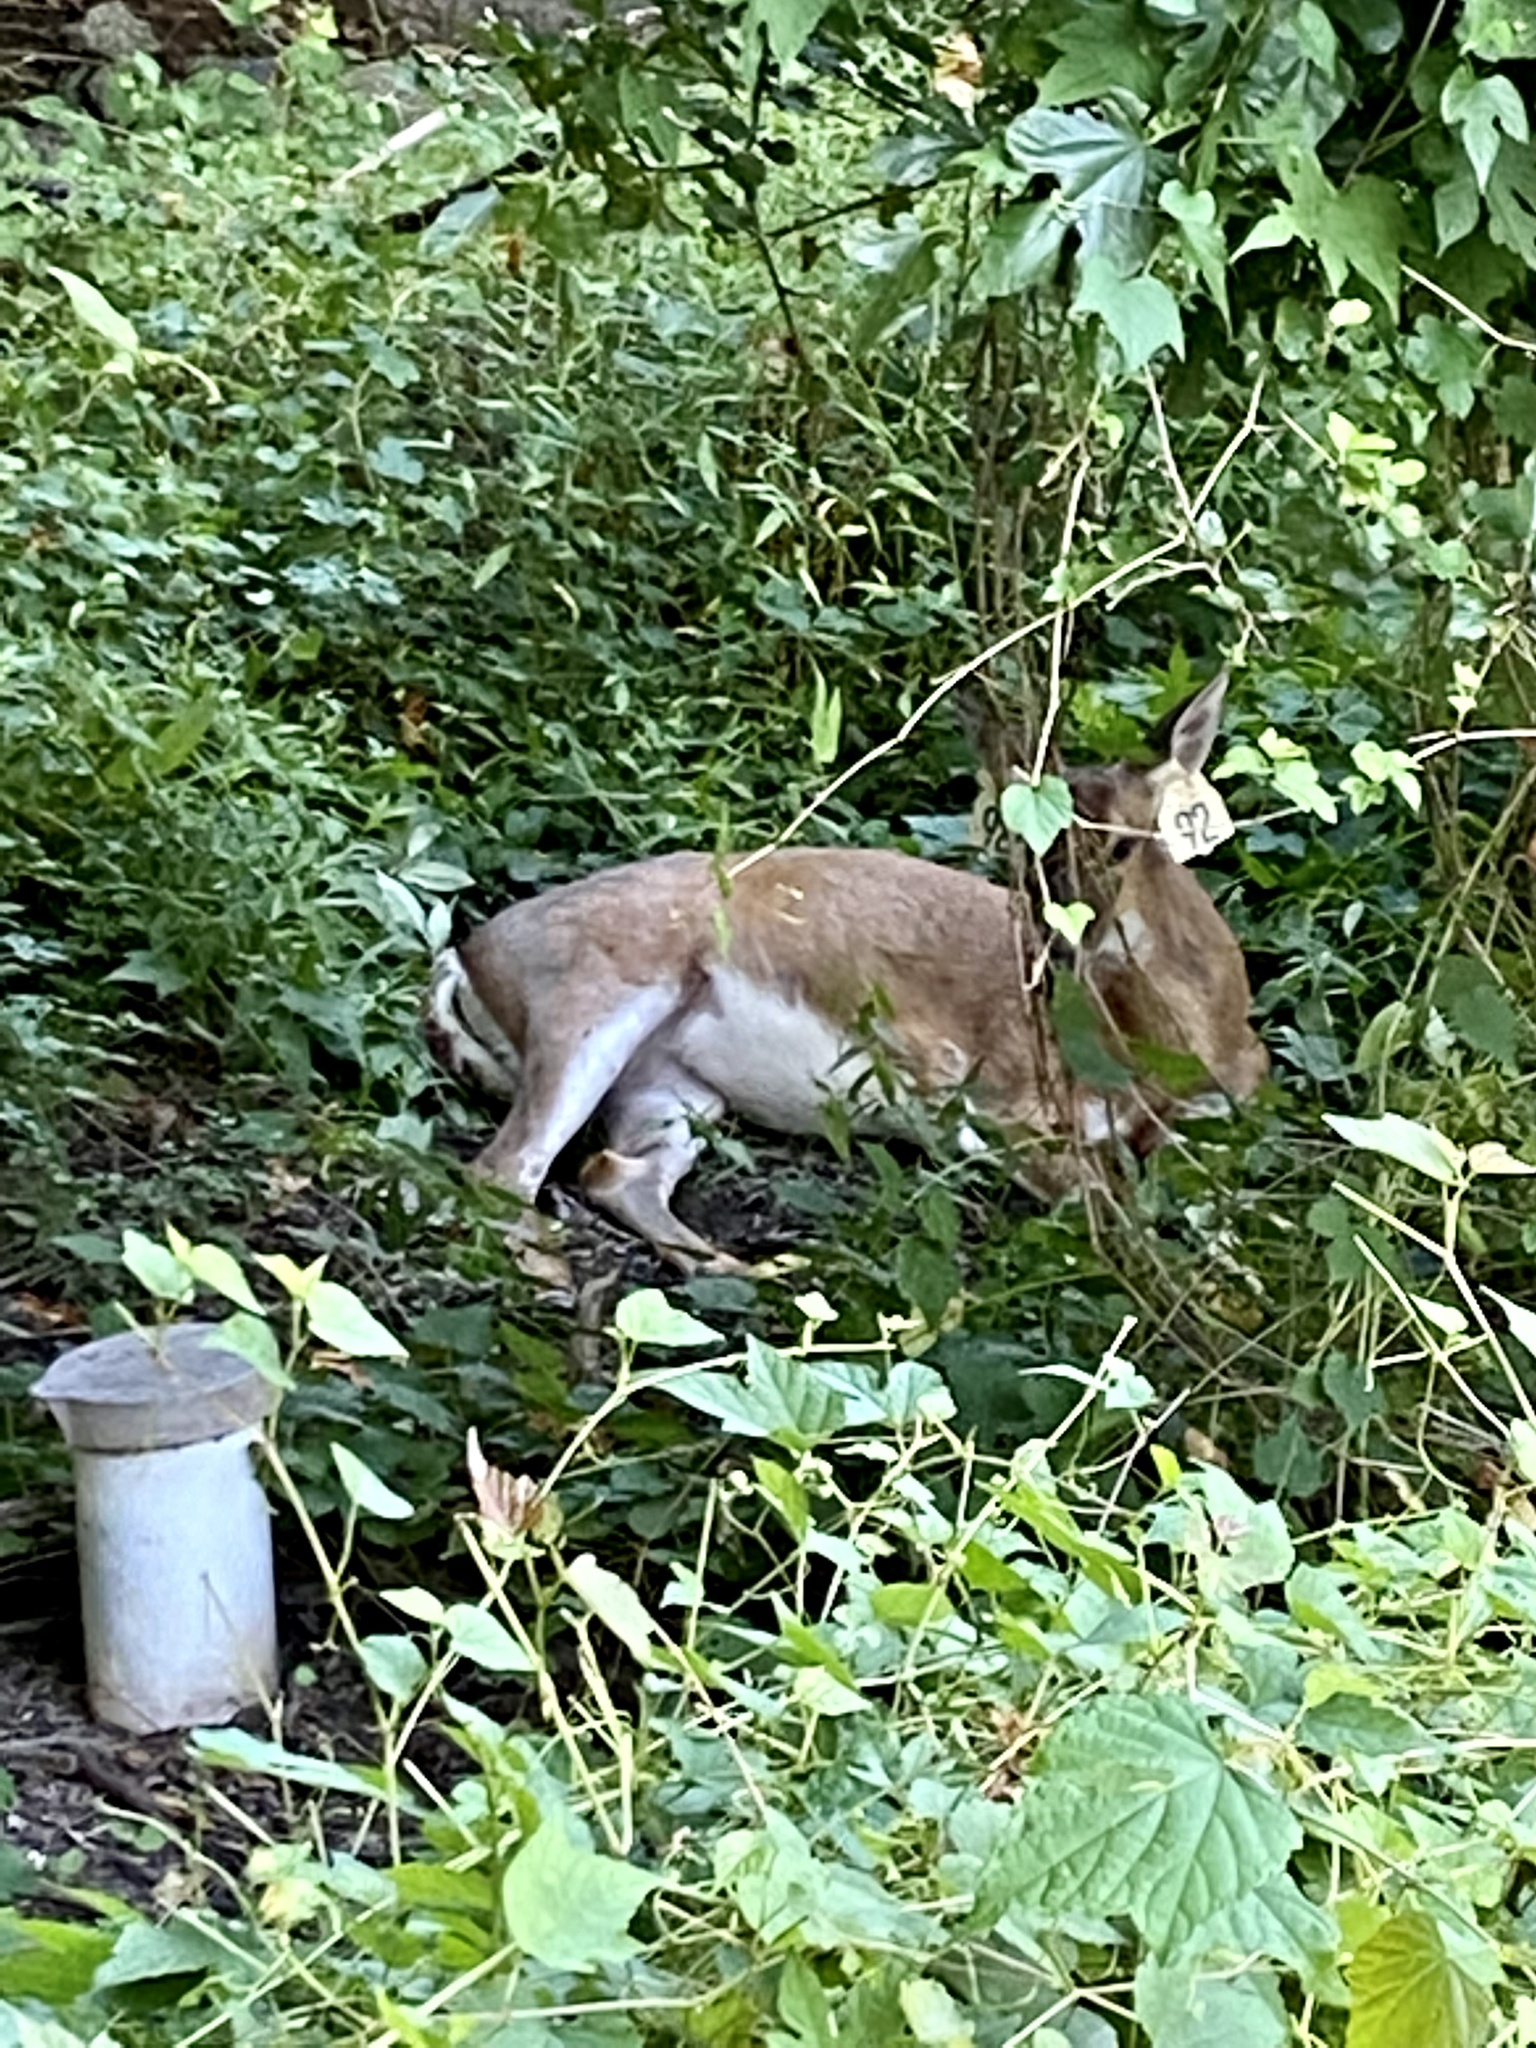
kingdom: Animalia
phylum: Chordata
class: Mammalia
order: Artiodactyla
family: Cervidae
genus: Odocoileus
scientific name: Odocoileus virginianus
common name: White-tailed deer
